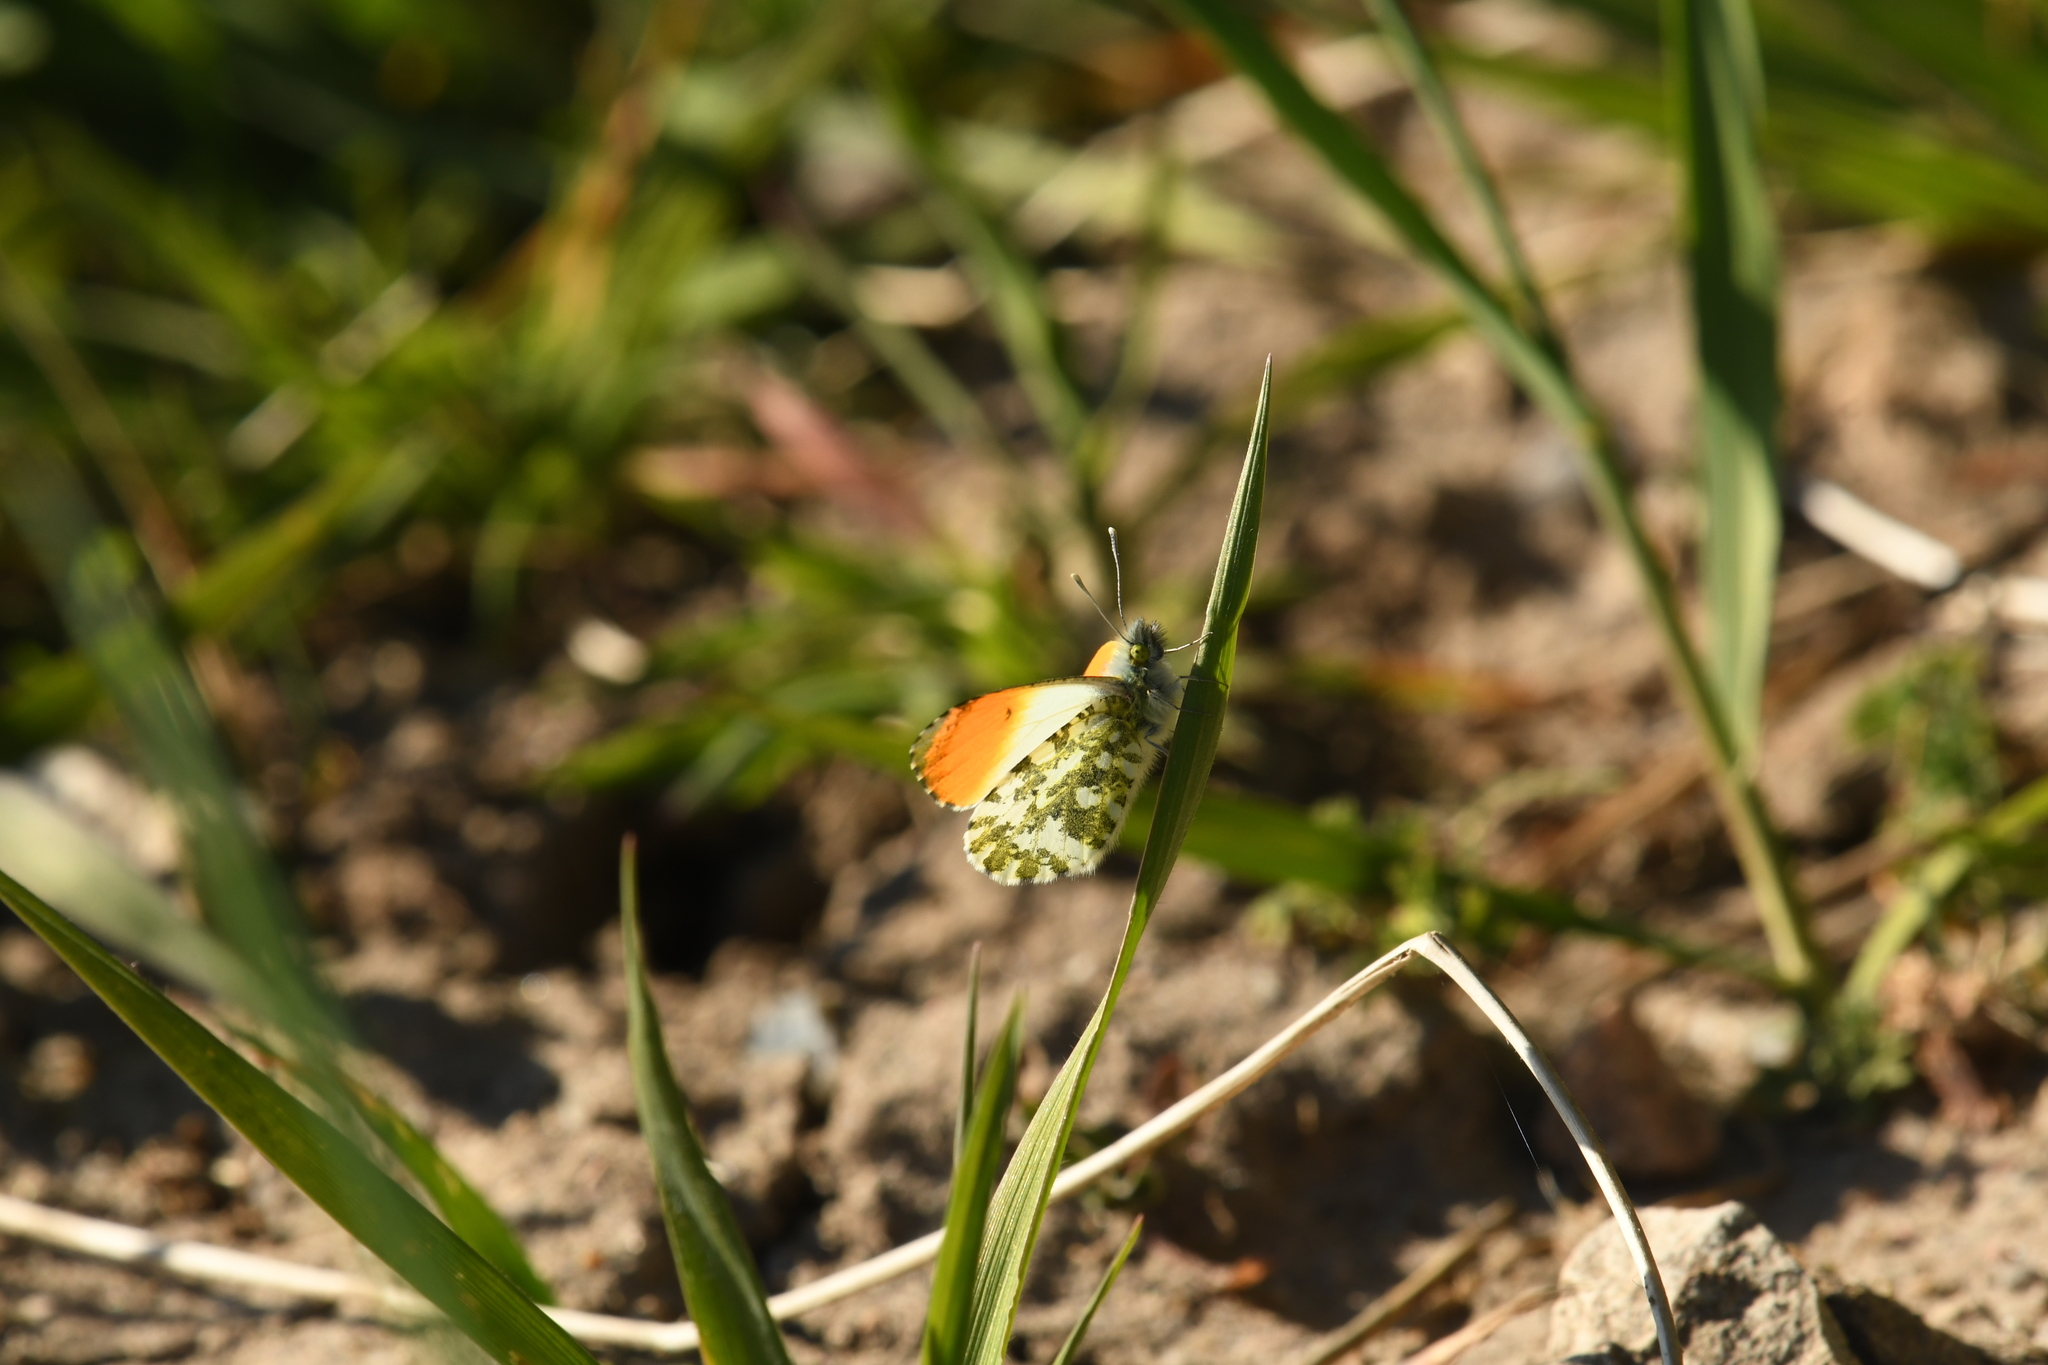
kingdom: Animalia
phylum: Arthropoda
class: Insecta
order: Lepidoptera
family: Pieridae
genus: Anthocharis
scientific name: Anthocharis cardamines
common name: Orange-tip
